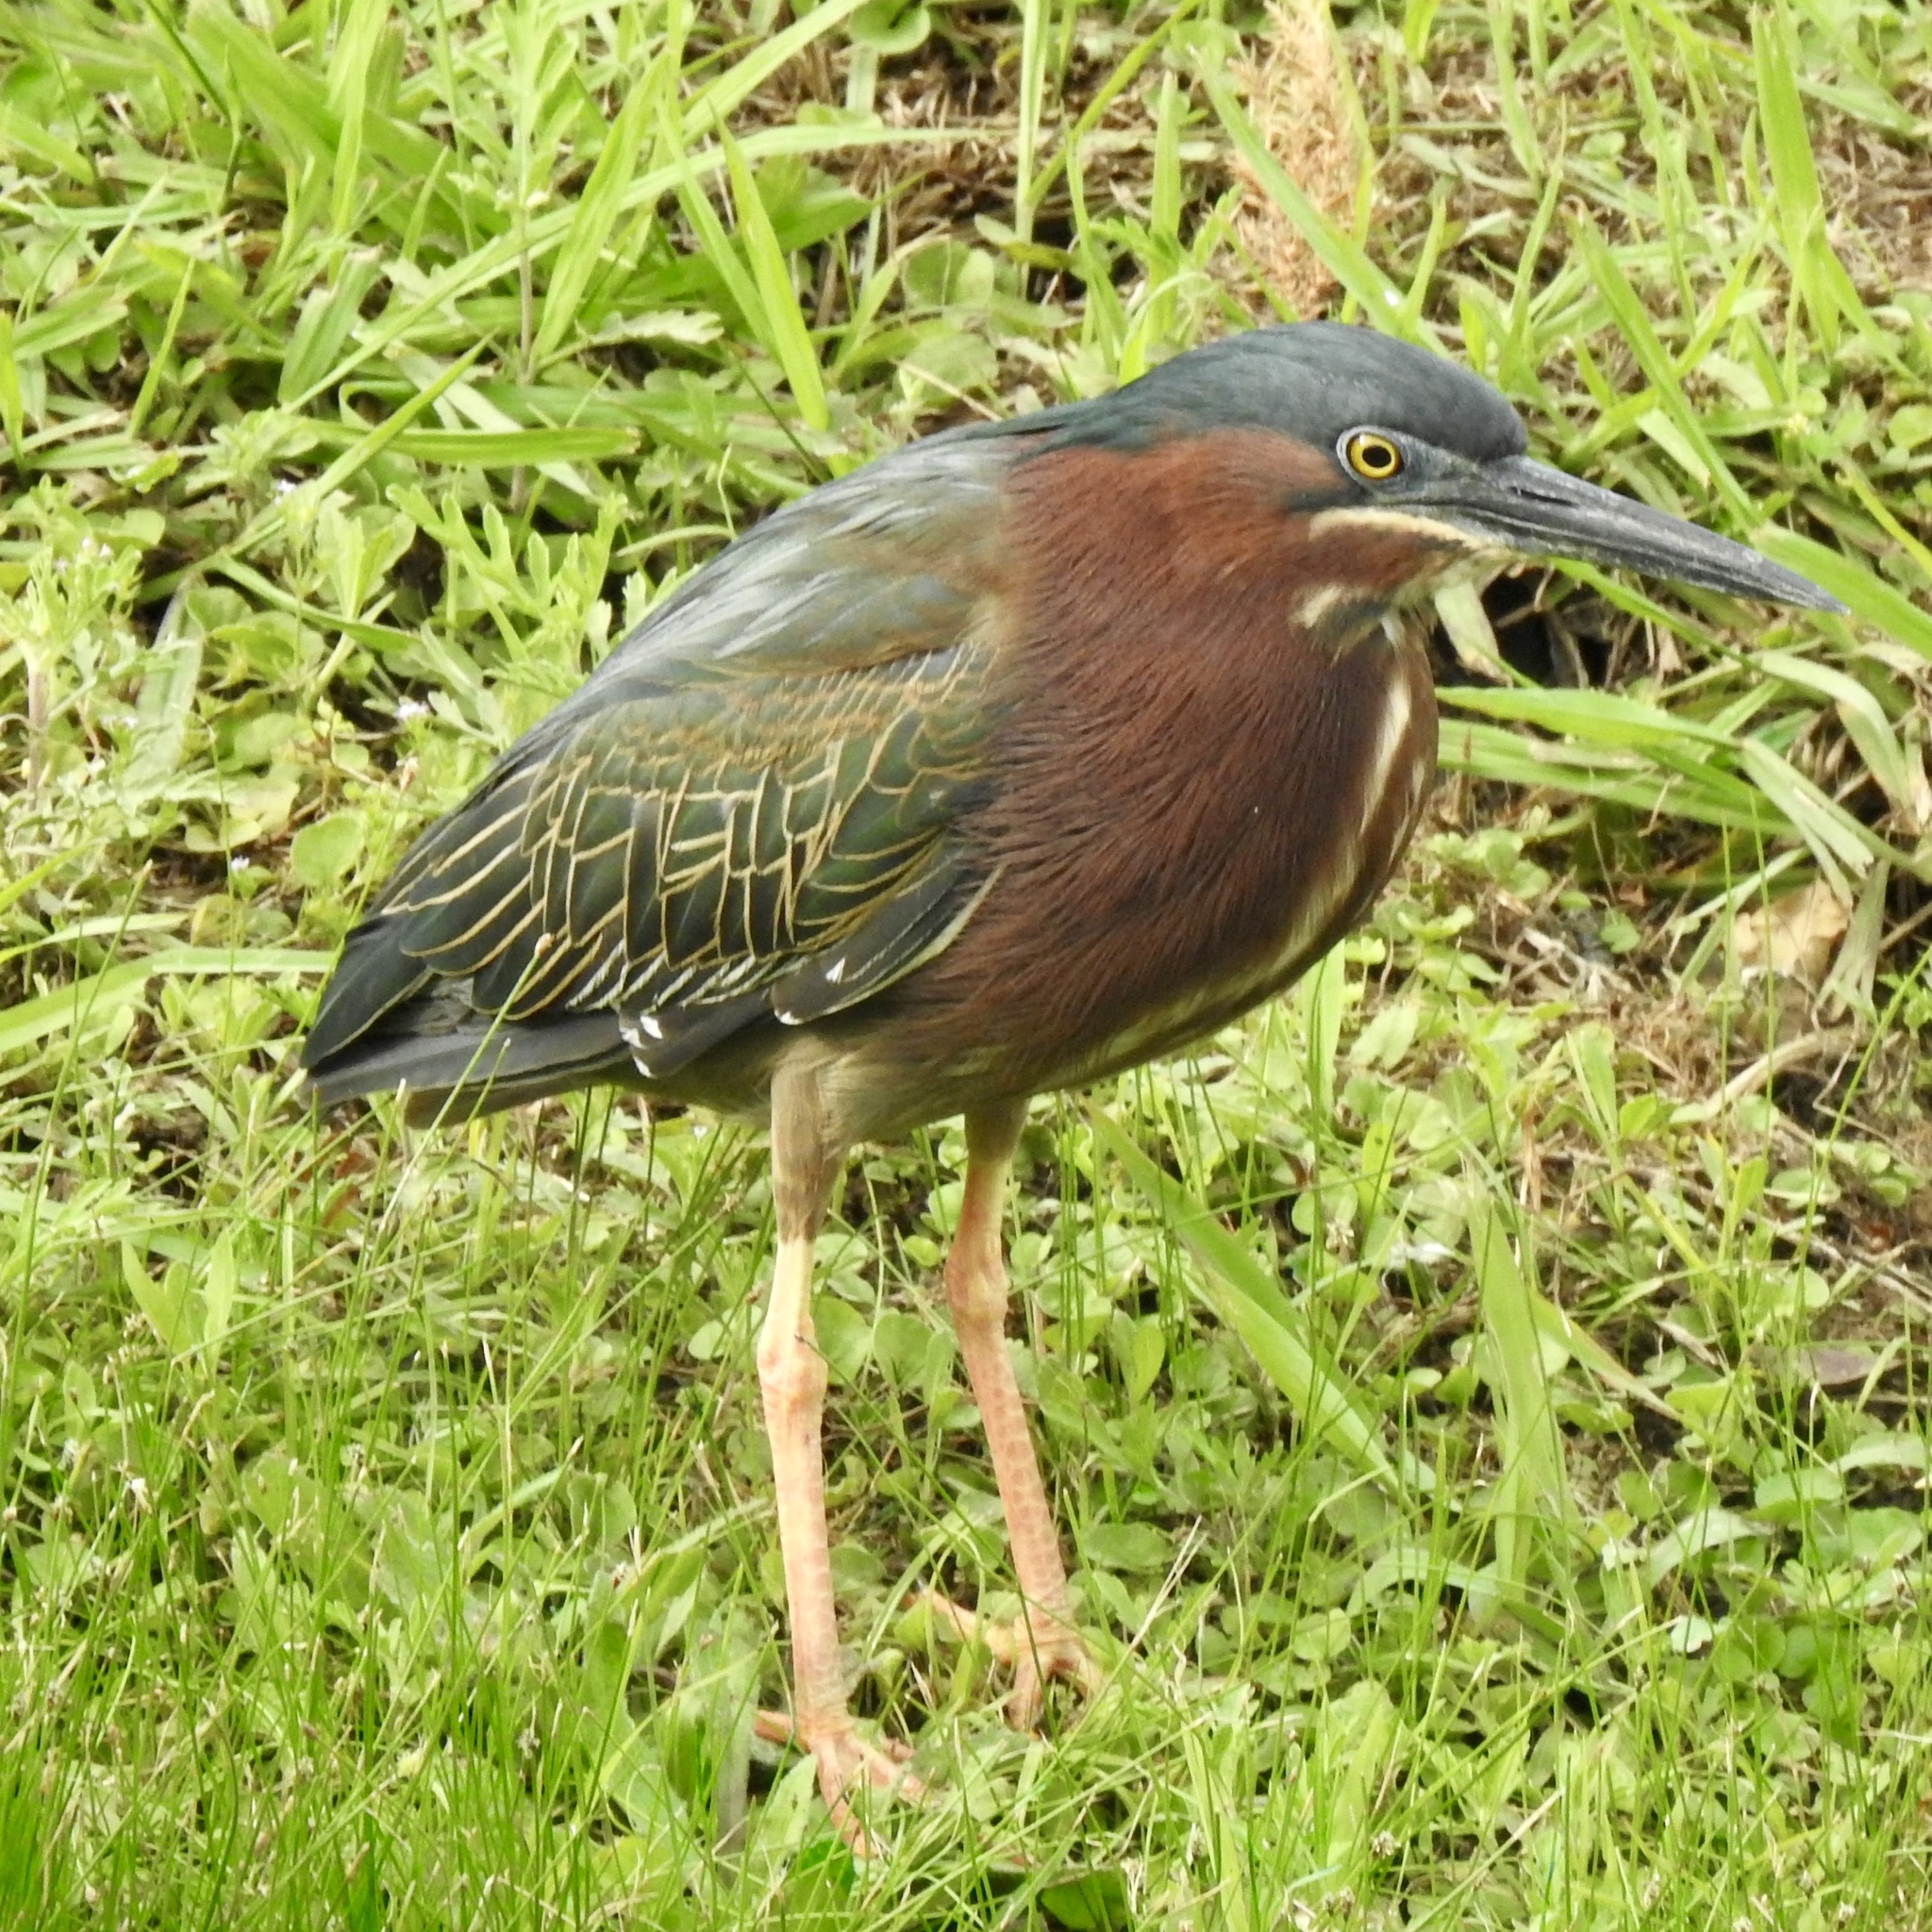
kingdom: Animalia
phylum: Chordata
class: Aves
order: Pelecaniformes
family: Ardeidae
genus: Butorides
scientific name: Butorides virescens
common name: Green heron
